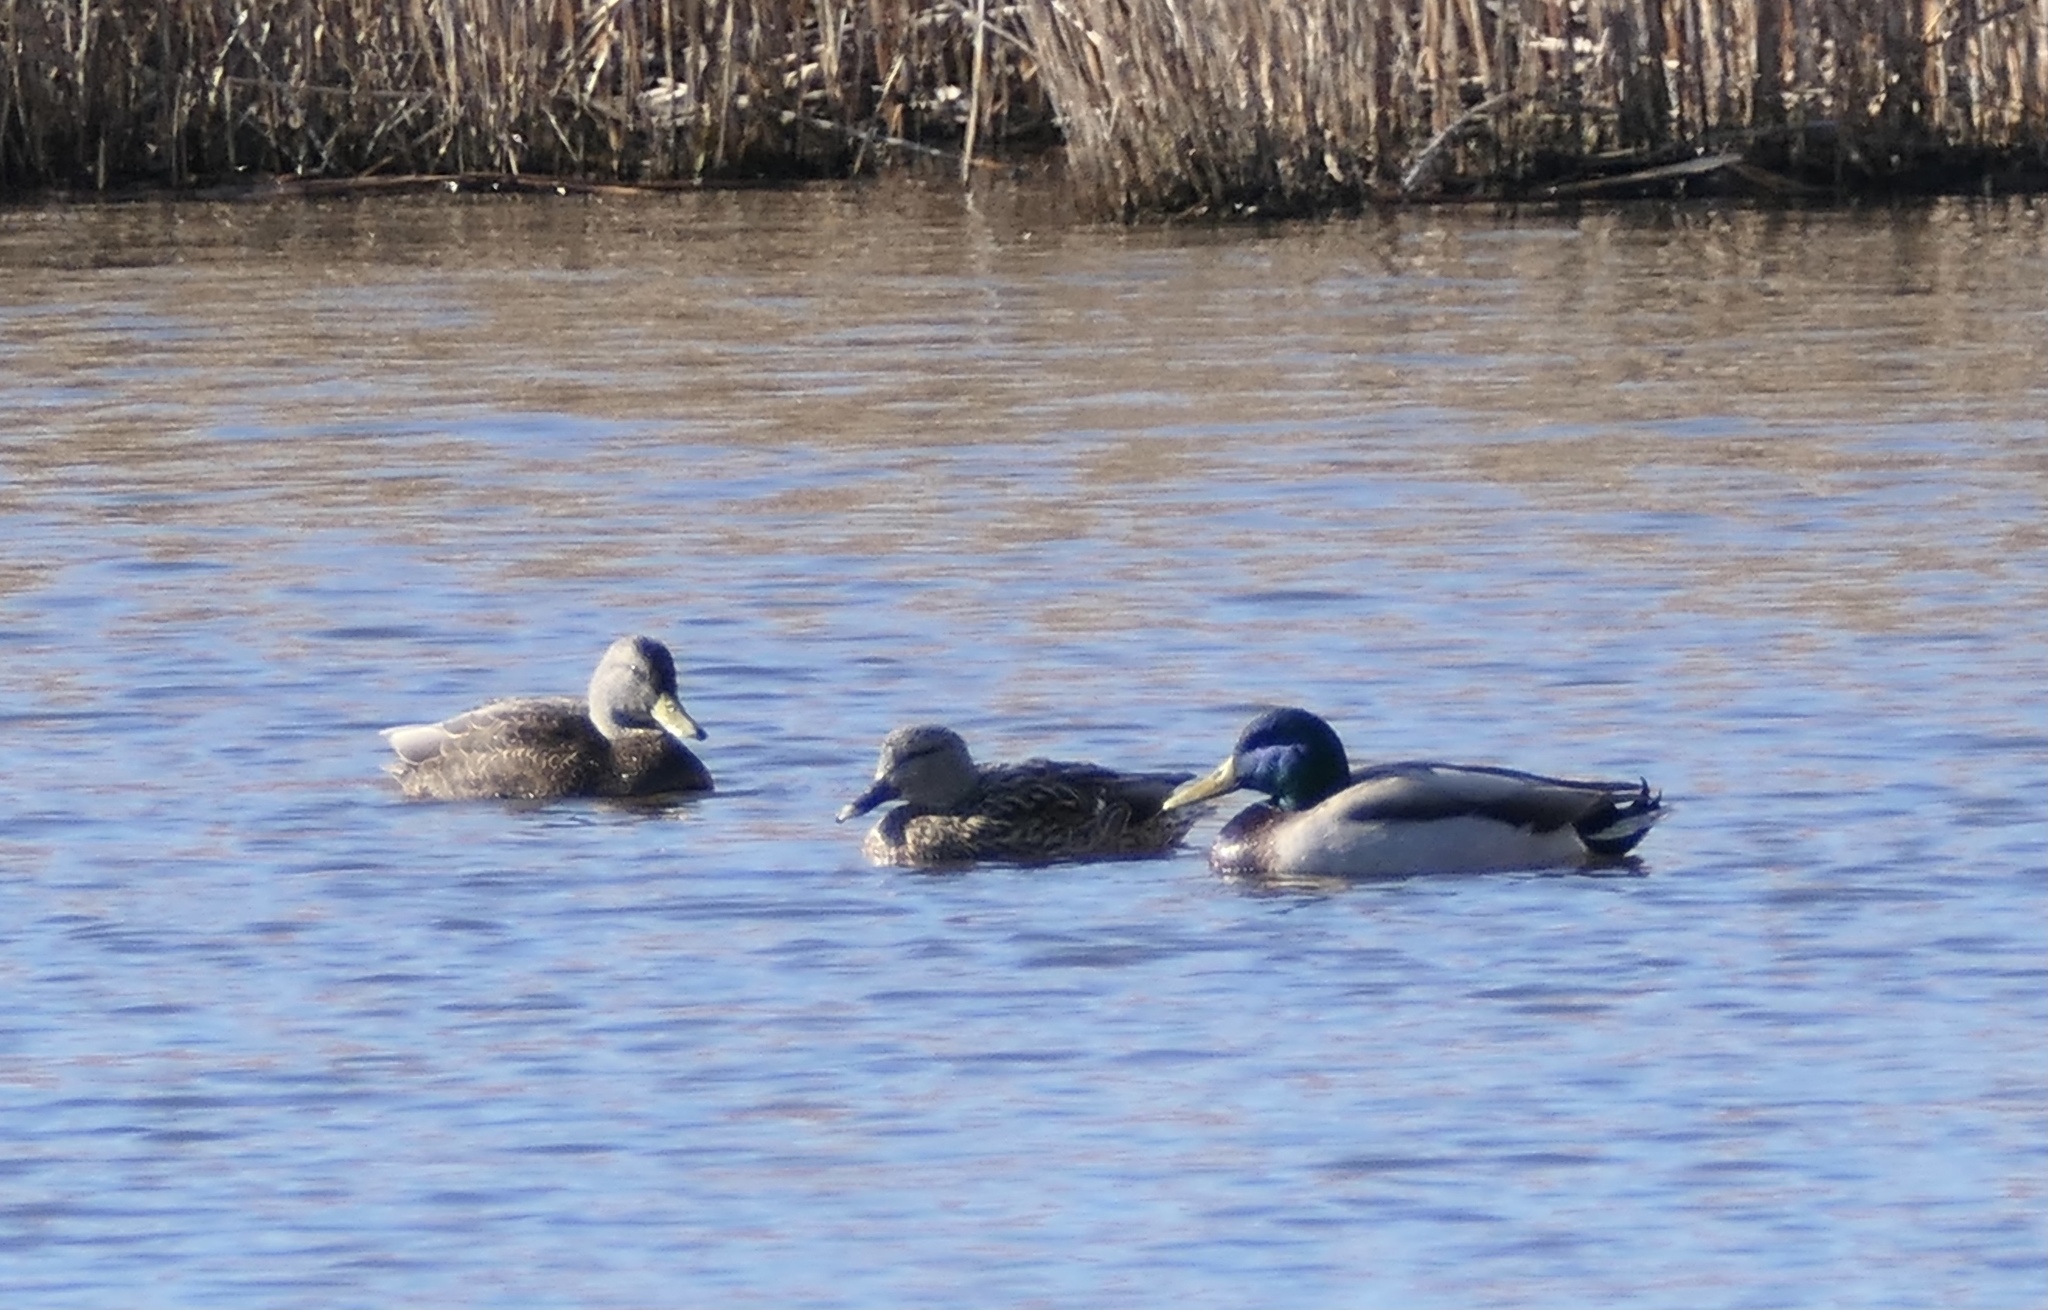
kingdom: Animalia
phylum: Chordata
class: Aves
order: Anseriformes
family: Anatidae
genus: Anas
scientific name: Anas platyrhynchos
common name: Mallard
